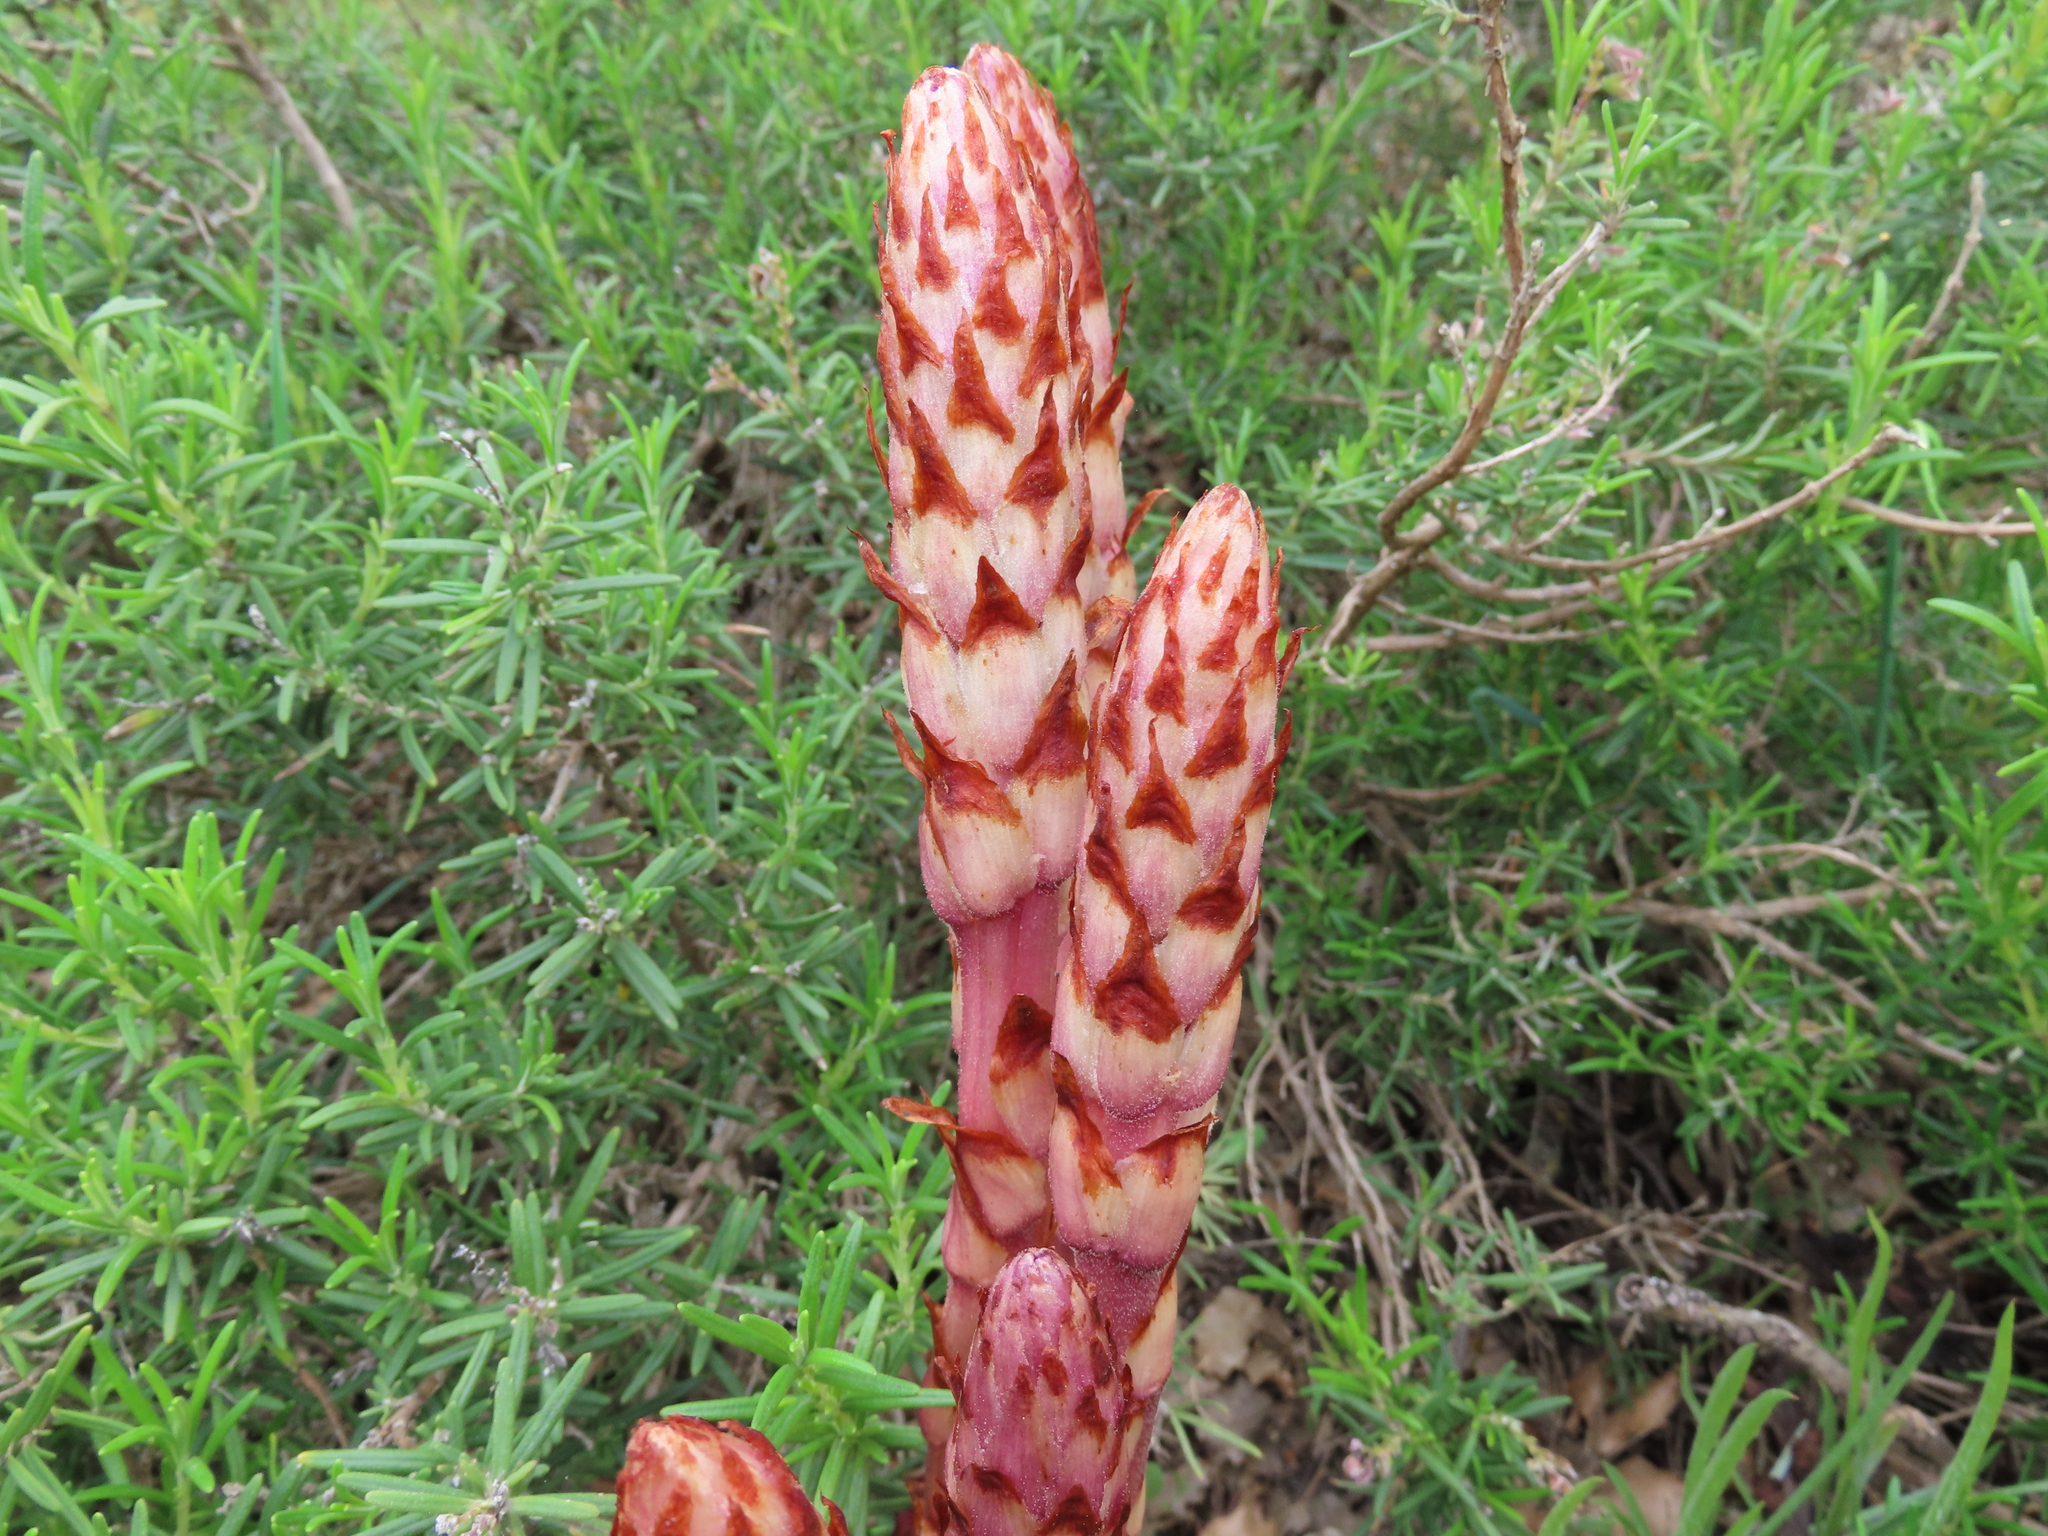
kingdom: Plantae
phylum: Tracheophyta
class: Magnoliopsida
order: Lamiales
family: Orobanchaceae
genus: Boulardia
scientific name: Boulardia latisquama
